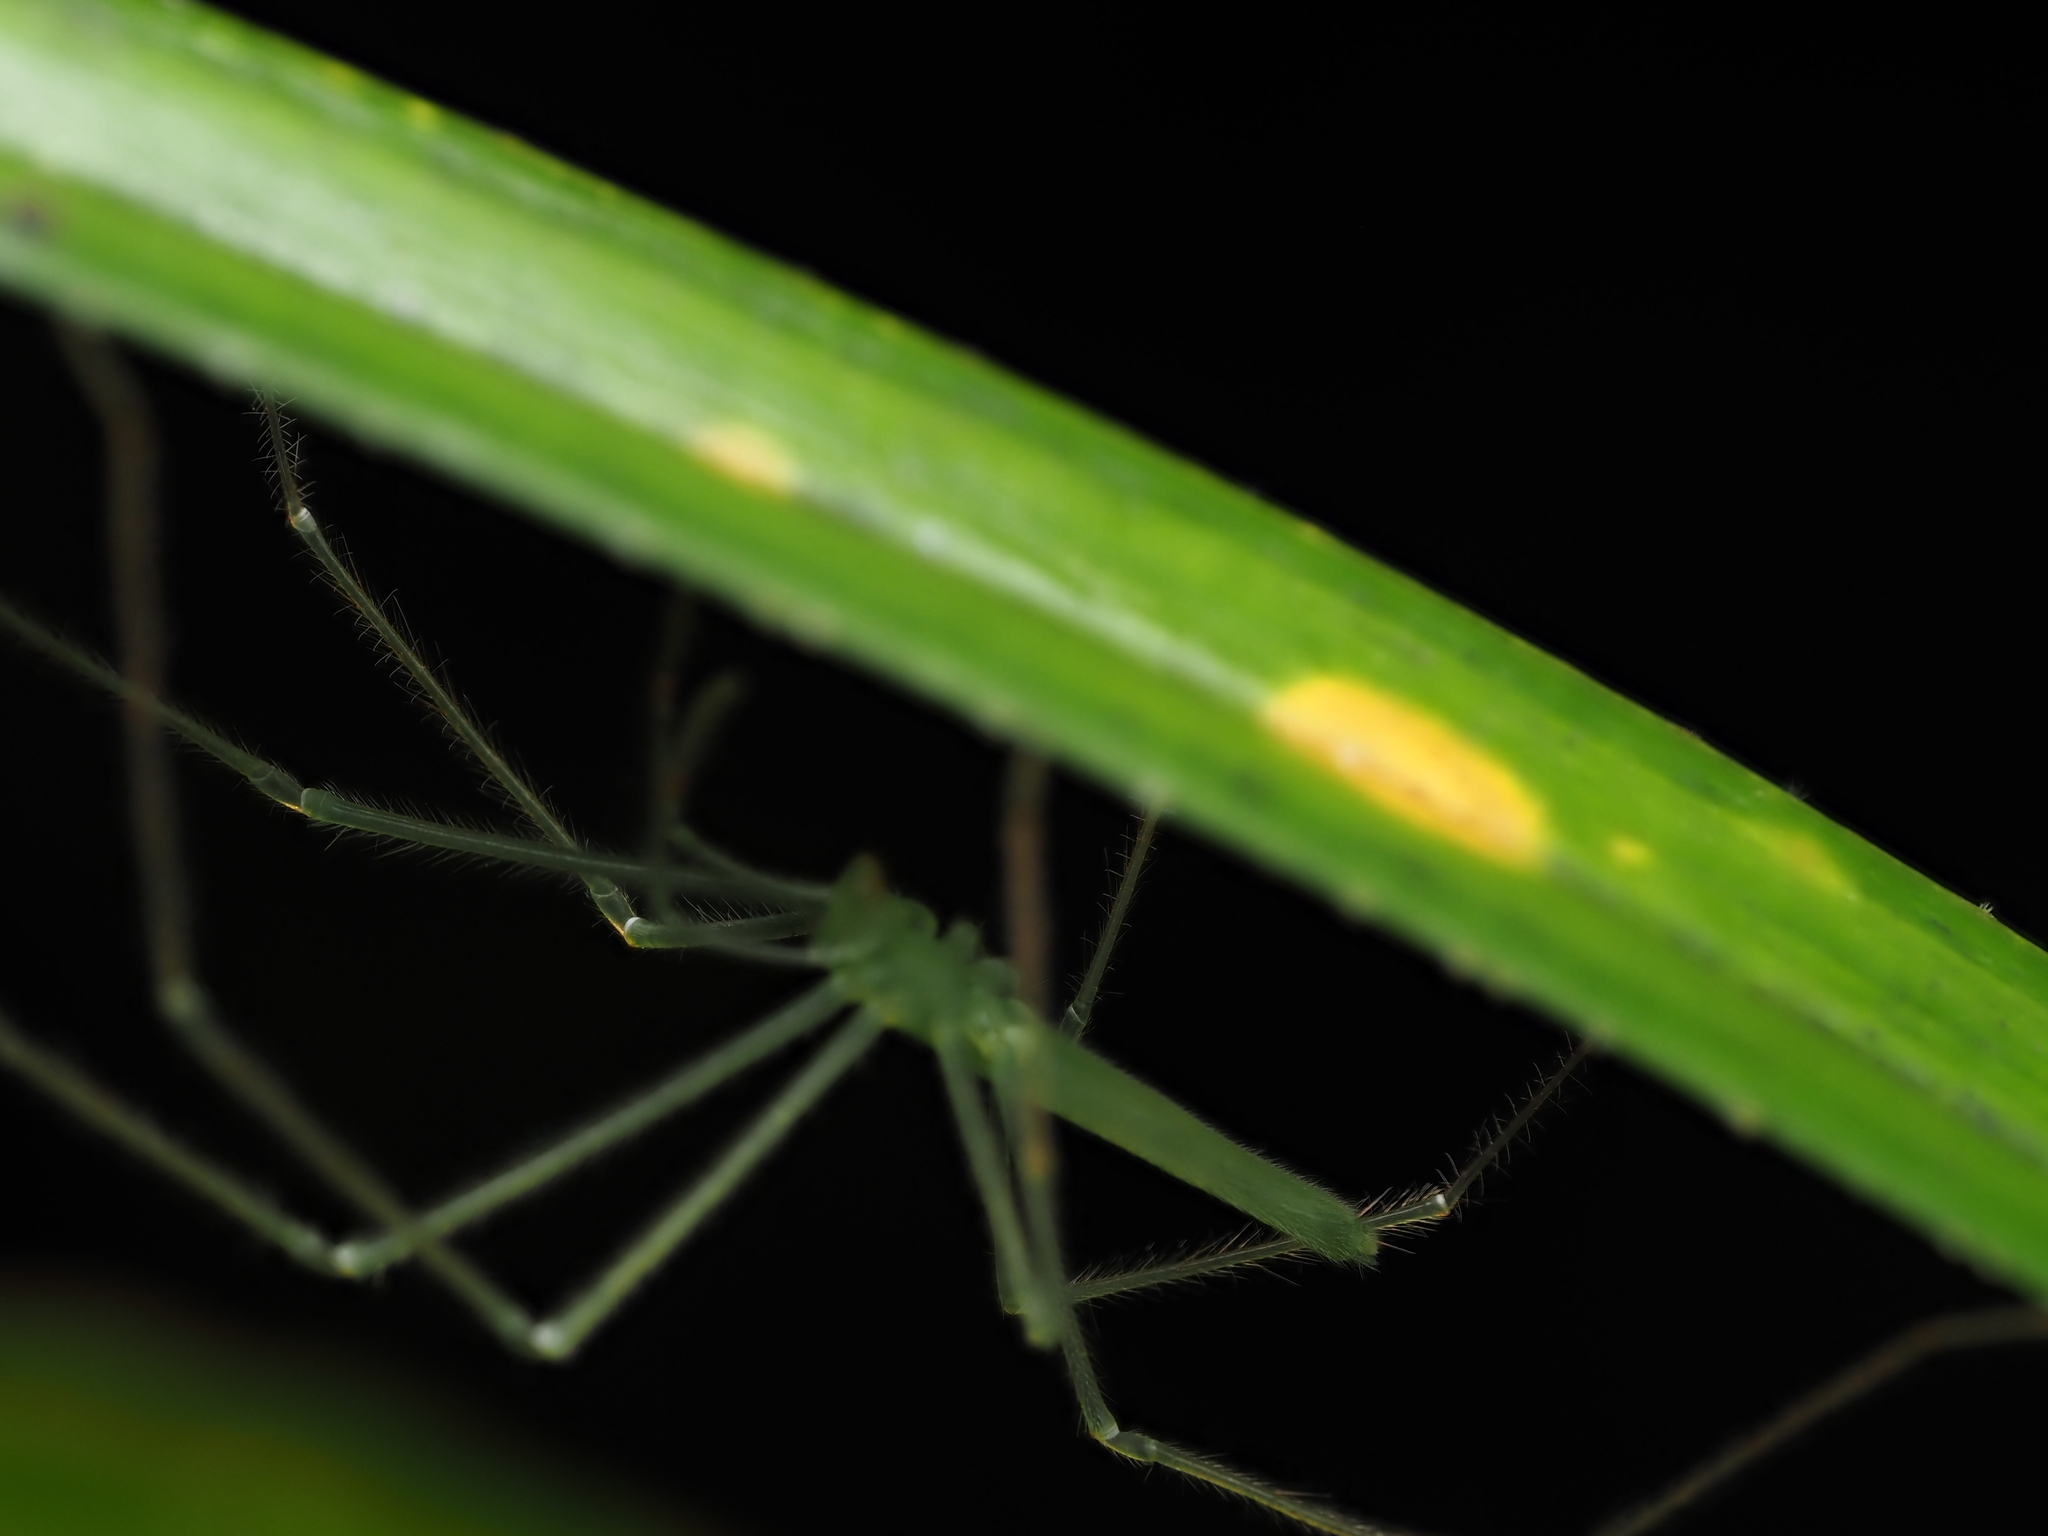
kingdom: Animalia
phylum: Arthropoda
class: Arachnida
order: Araneae
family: Desidae
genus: Ischalea
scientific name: Ischalea spinipes
